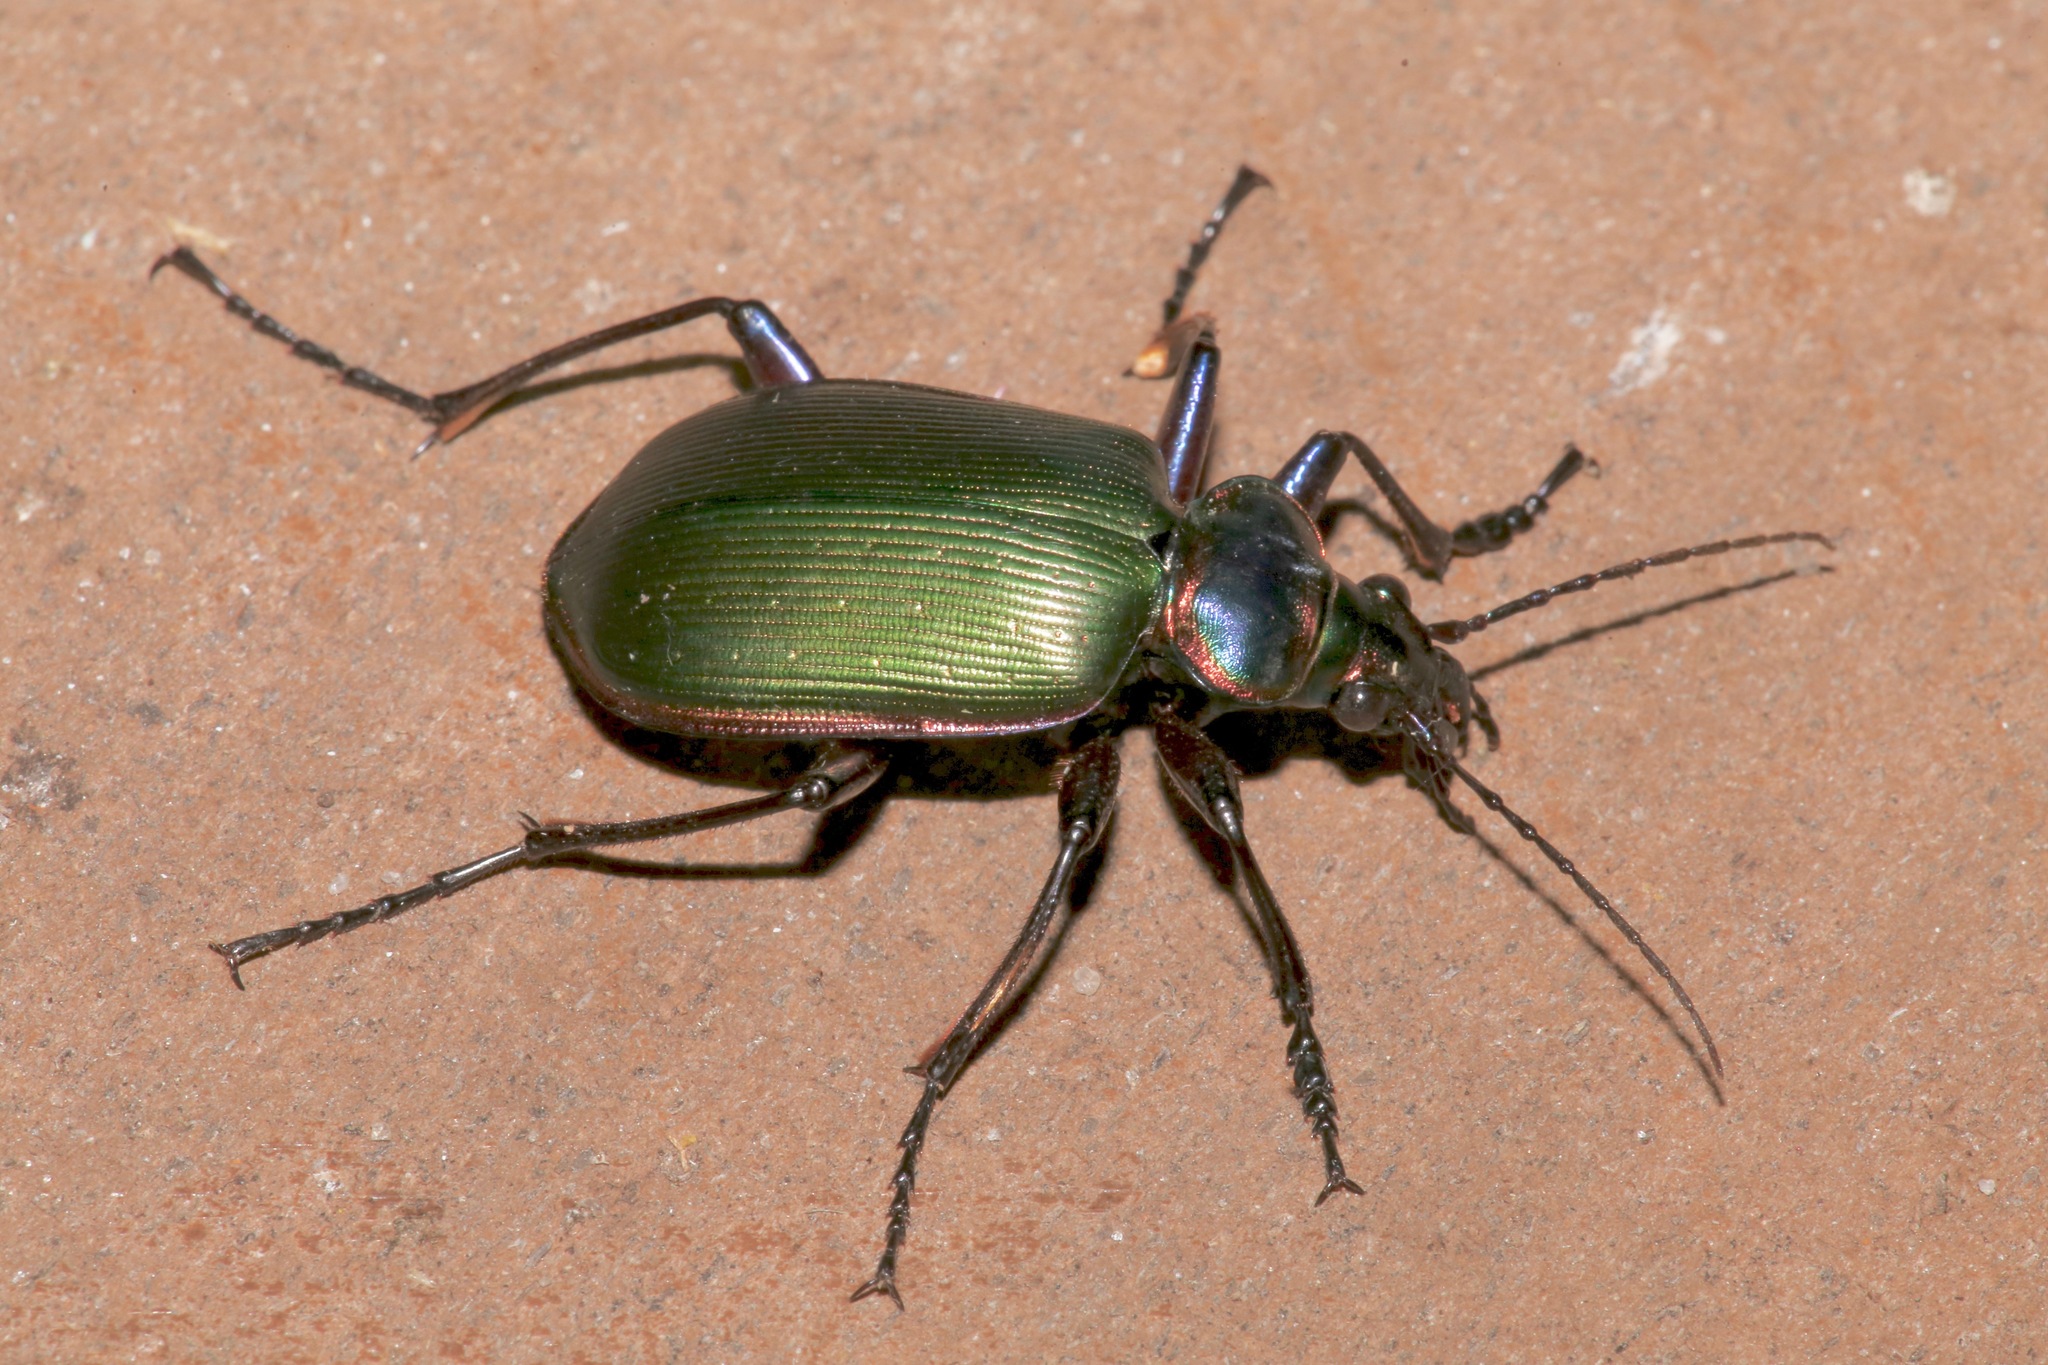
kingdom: Animalia
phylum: Arthropoda
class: Insecta
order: Coleoptera
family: Carabidae
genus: Calosoma
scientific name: Calosoma scrutator
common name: Fiery searcher beetle
